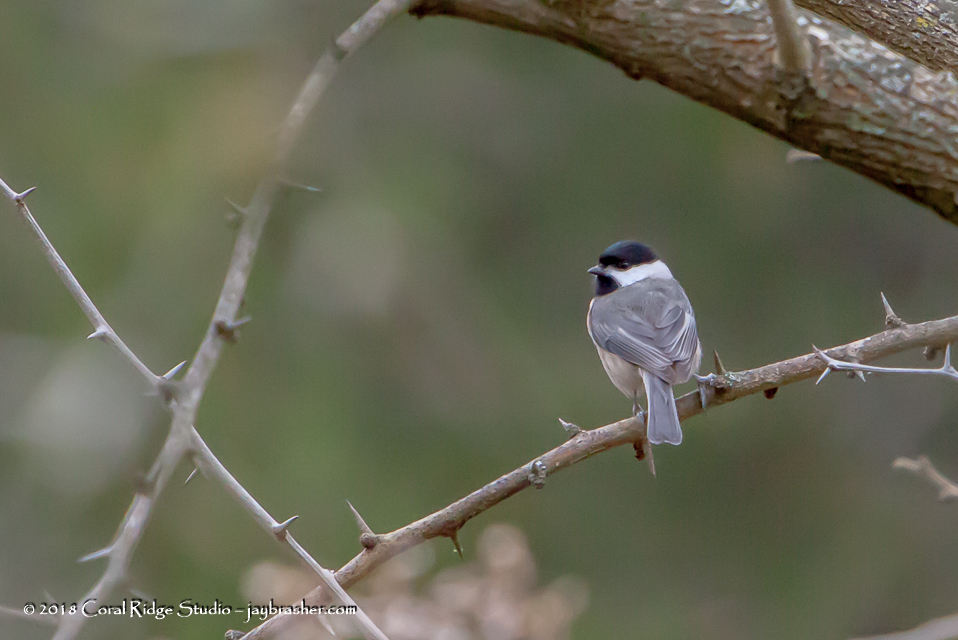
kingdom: Animalia
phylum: Chordata
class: Aves
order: Passeriformes
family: Paridae
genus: Poecile
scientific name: Poecile carolinensis
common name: Carolina chickadee
